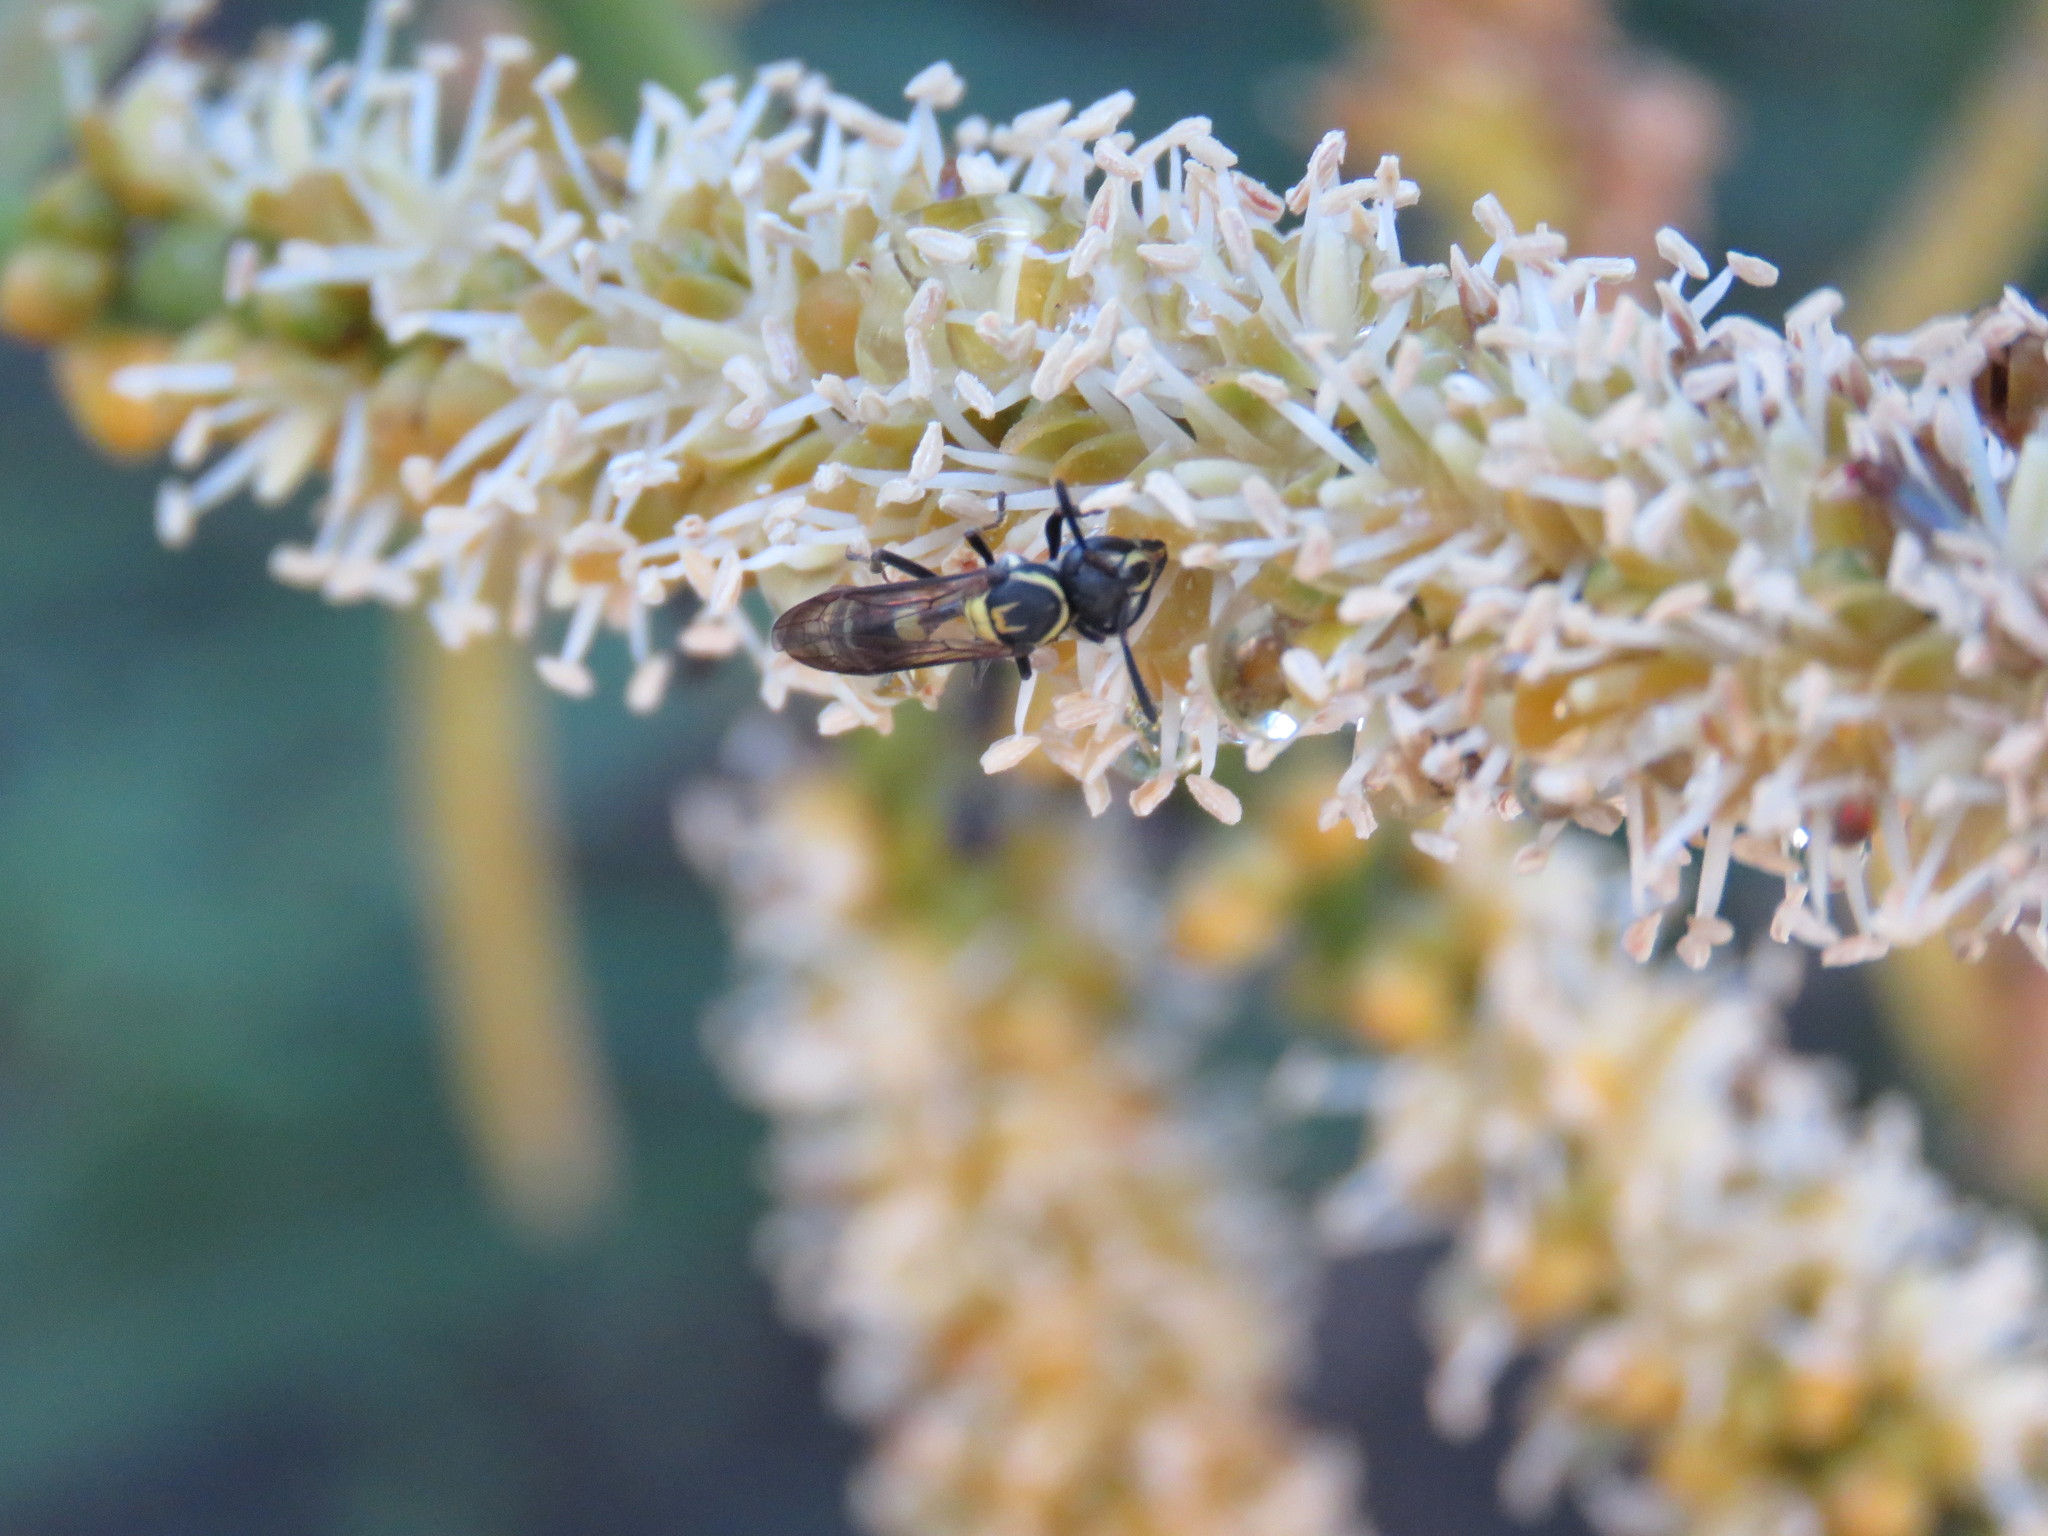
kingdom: Animalia
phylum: Arthropoda
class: Insecta
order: Hymenoptera
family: Eumenidae
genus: Polybia
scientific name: Polybia occidentalis
